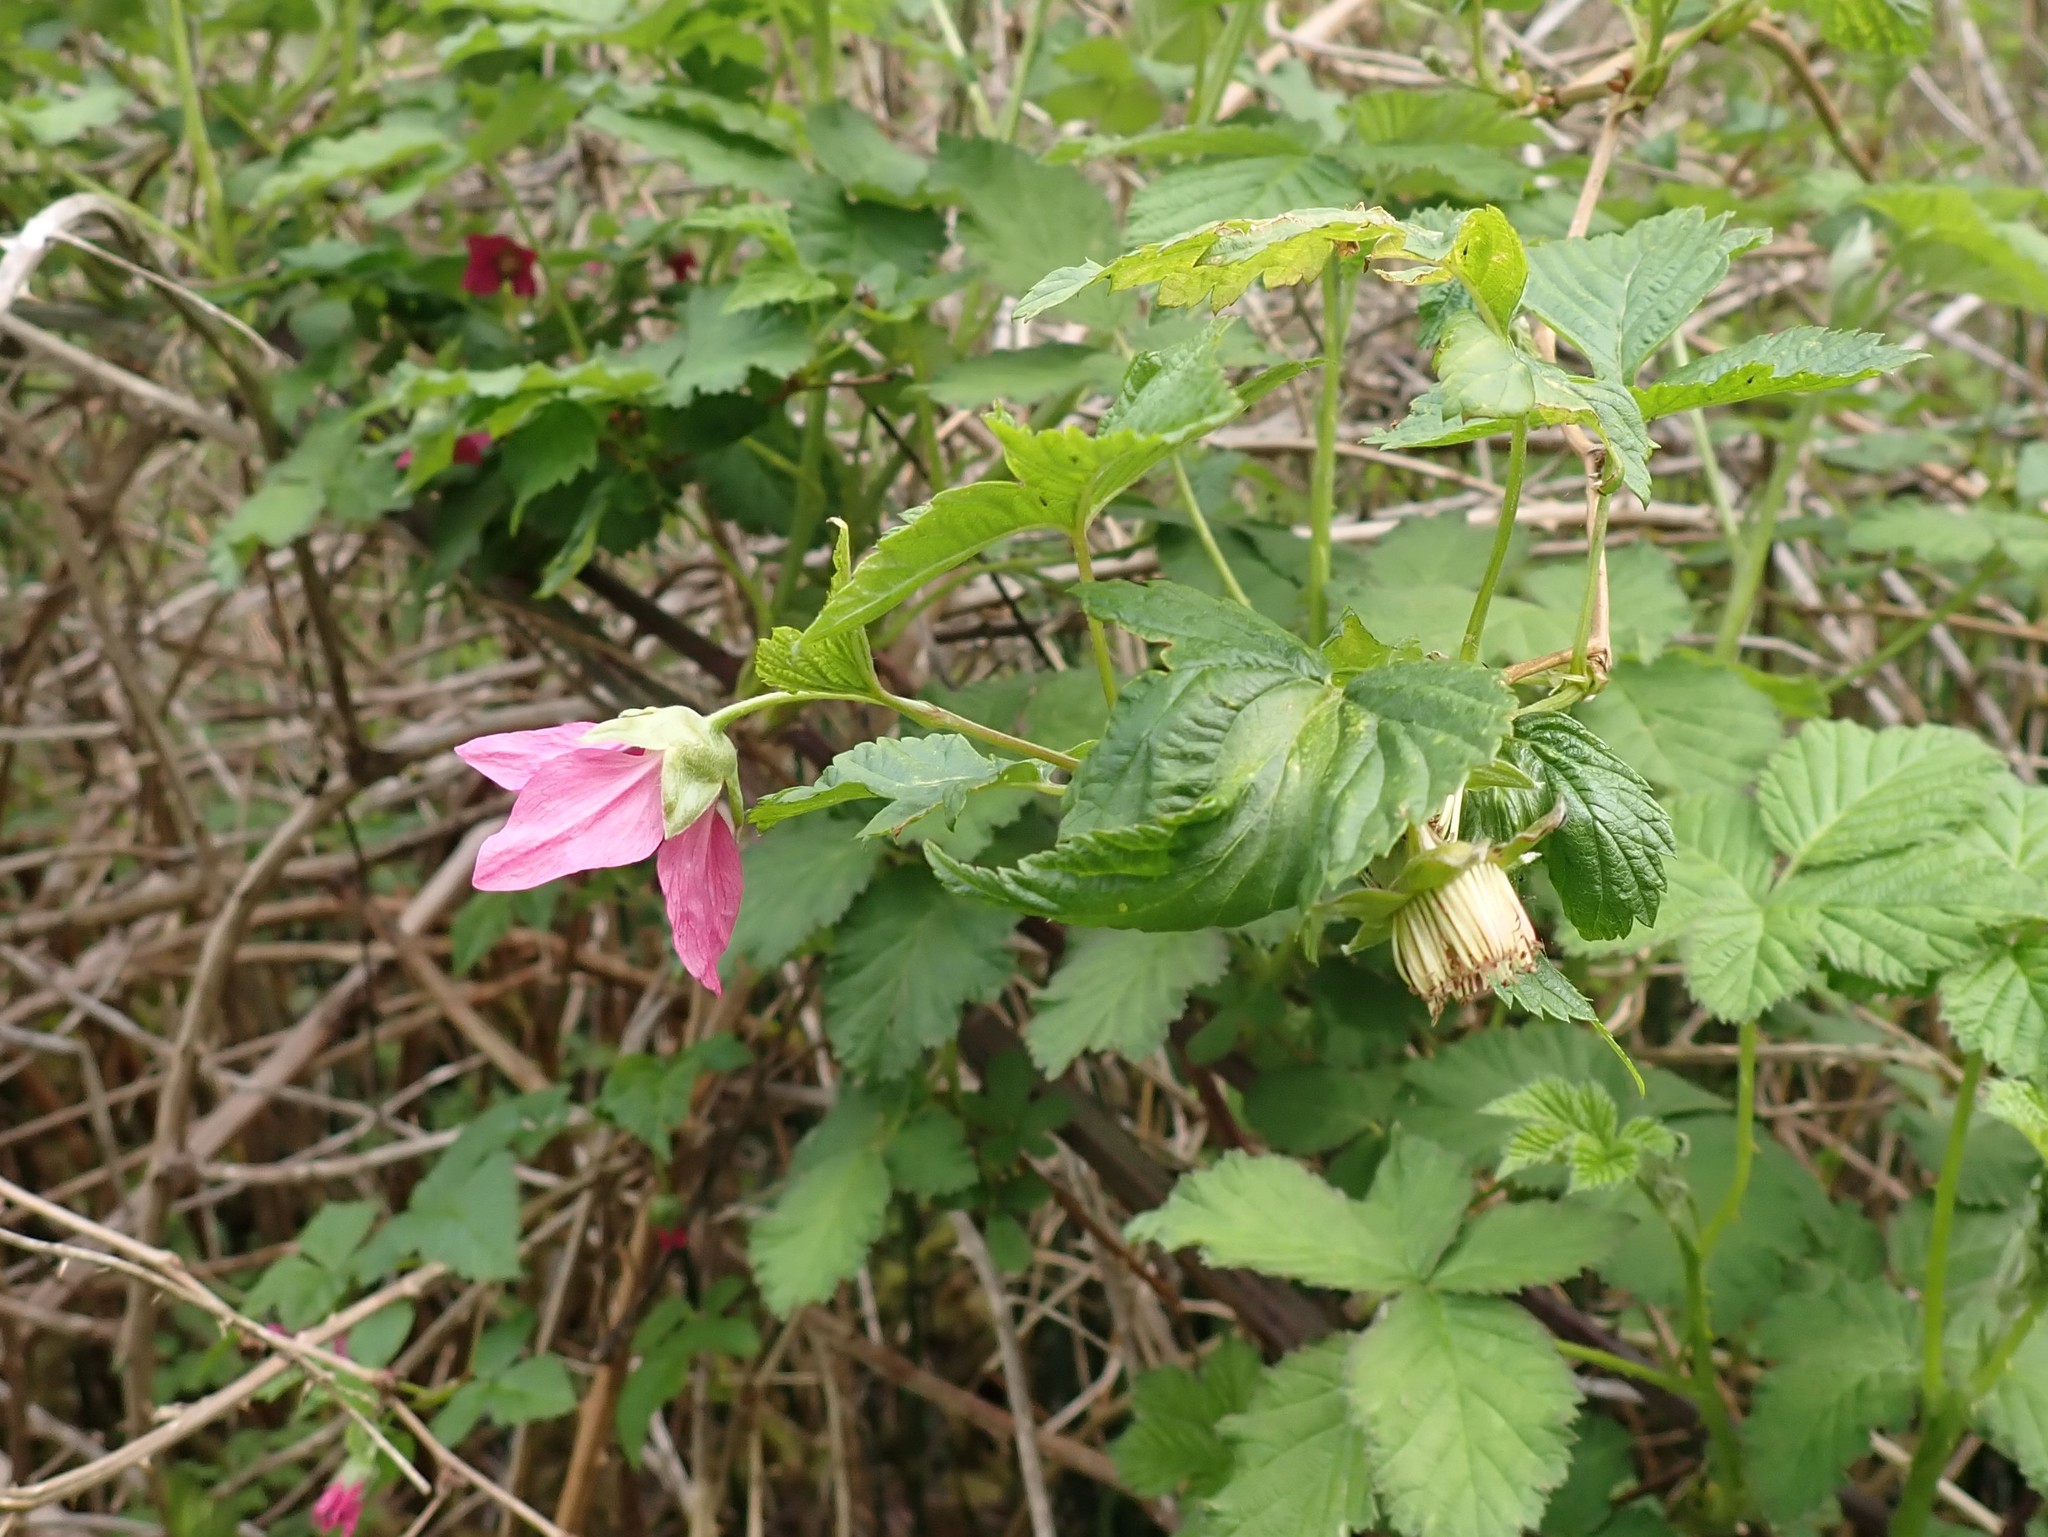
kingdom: Plantae
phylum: Tracheophyta
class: Magnoliopsida
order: Rosales
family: Rosaceae
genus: Rubus
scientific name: Rubus spectabilis
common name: Salmonberry
